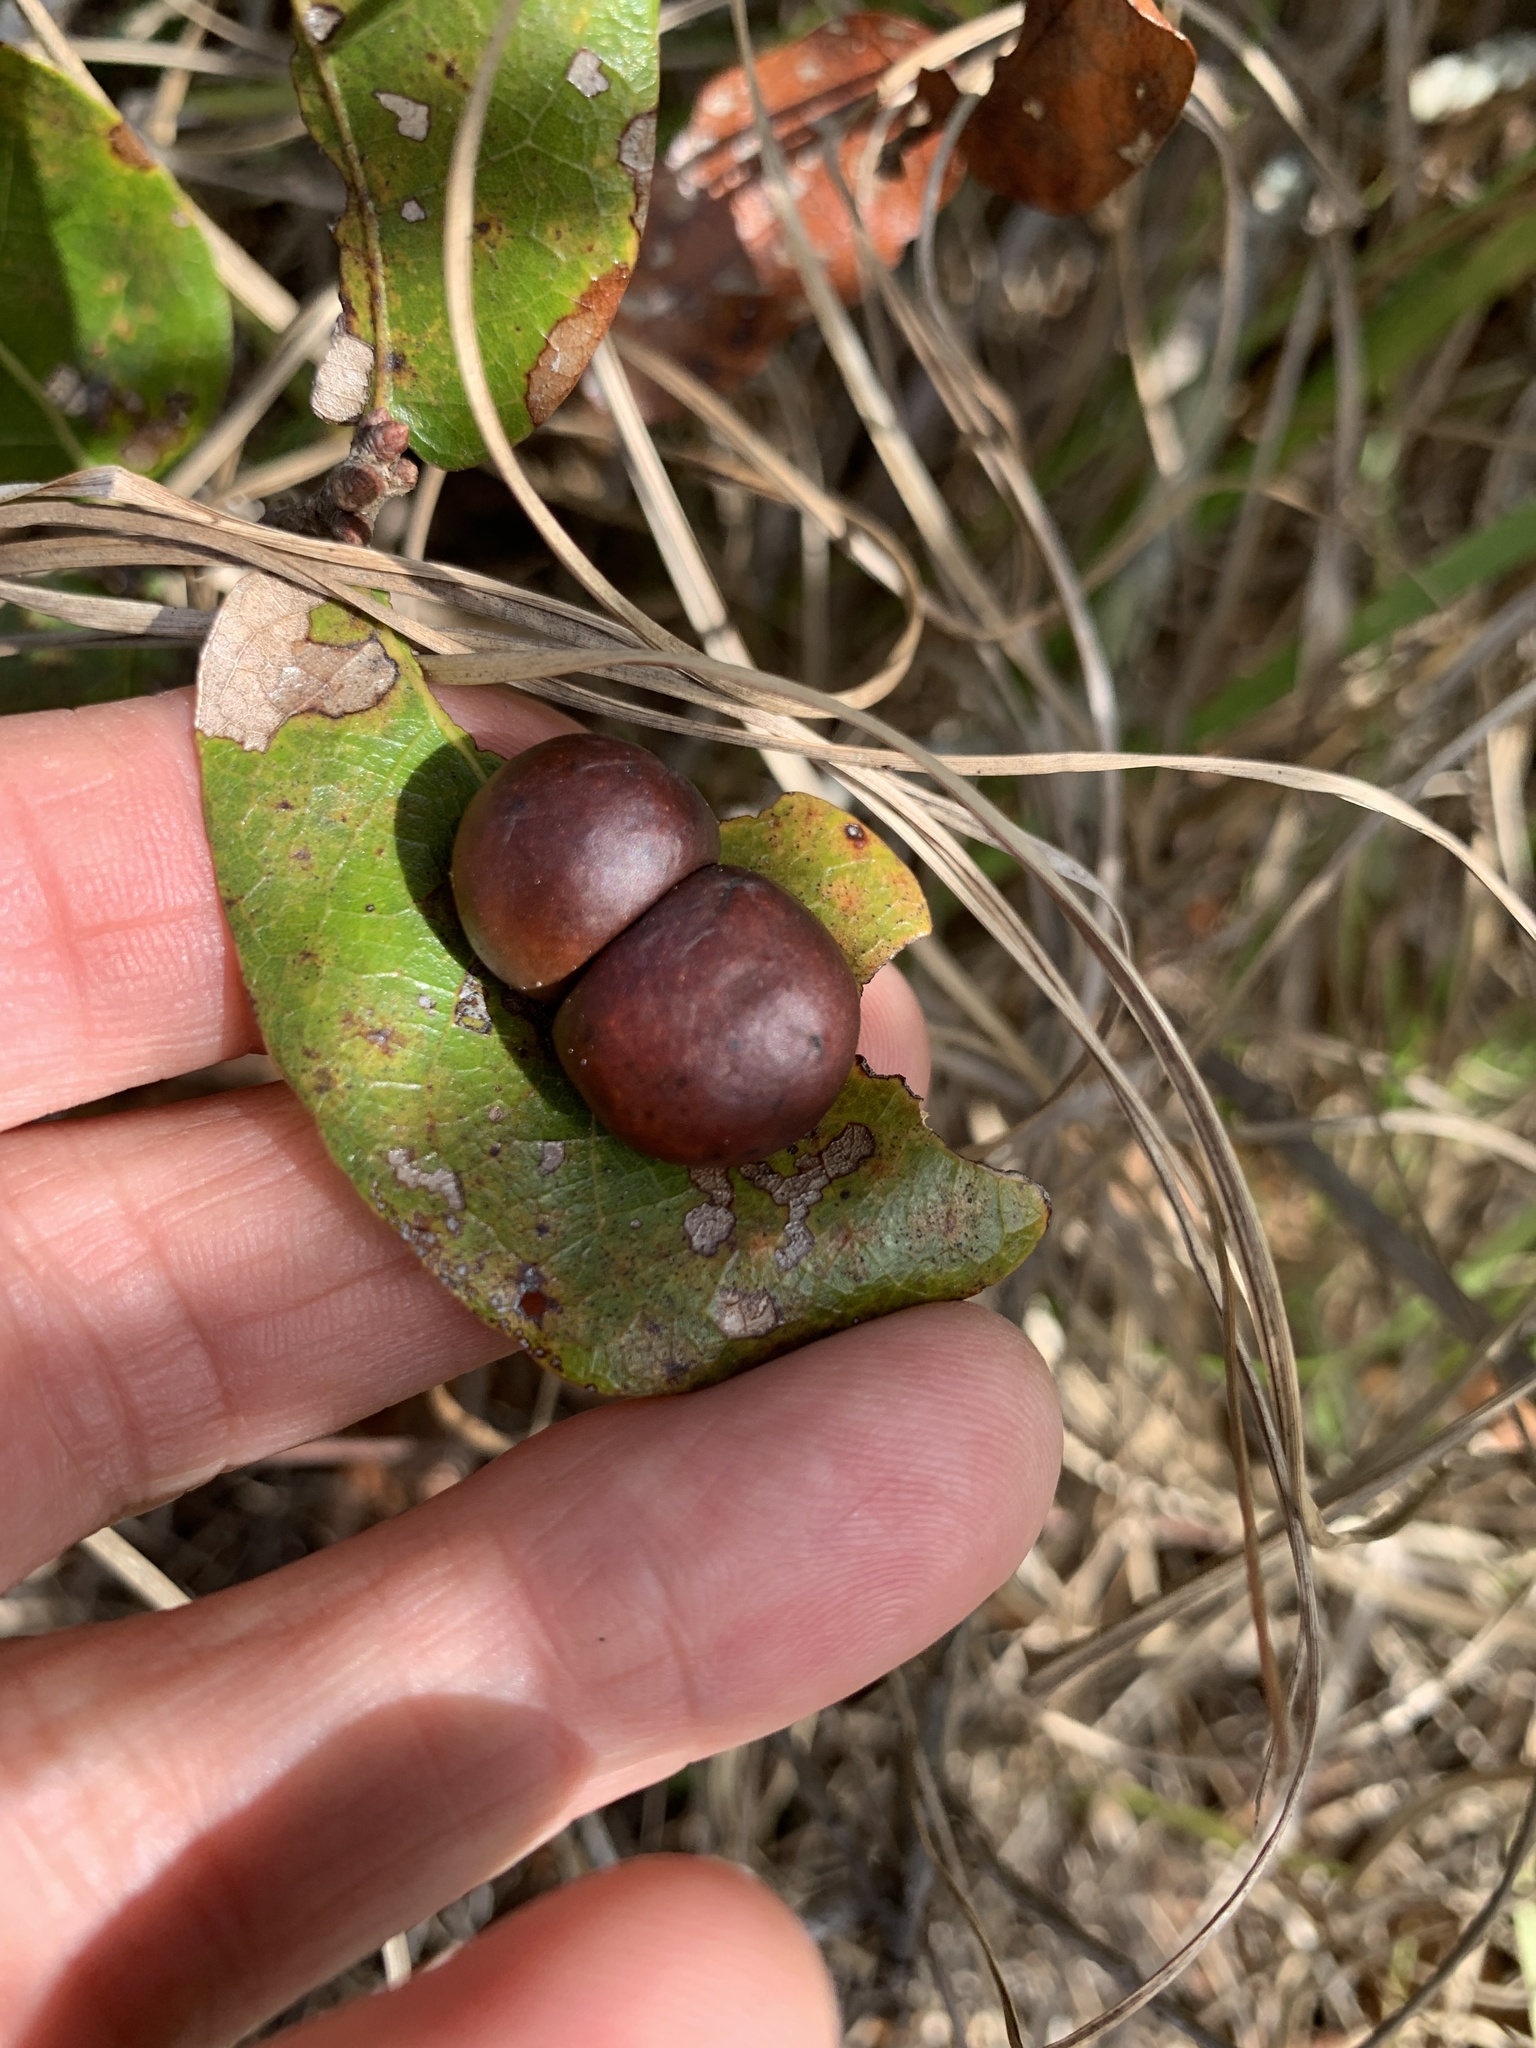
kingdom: Animalia
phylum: Arthropoda
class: Insecta
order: Hymenoptera
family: Cynipidae
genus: Trigonaspis
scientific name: Trigonaspis
